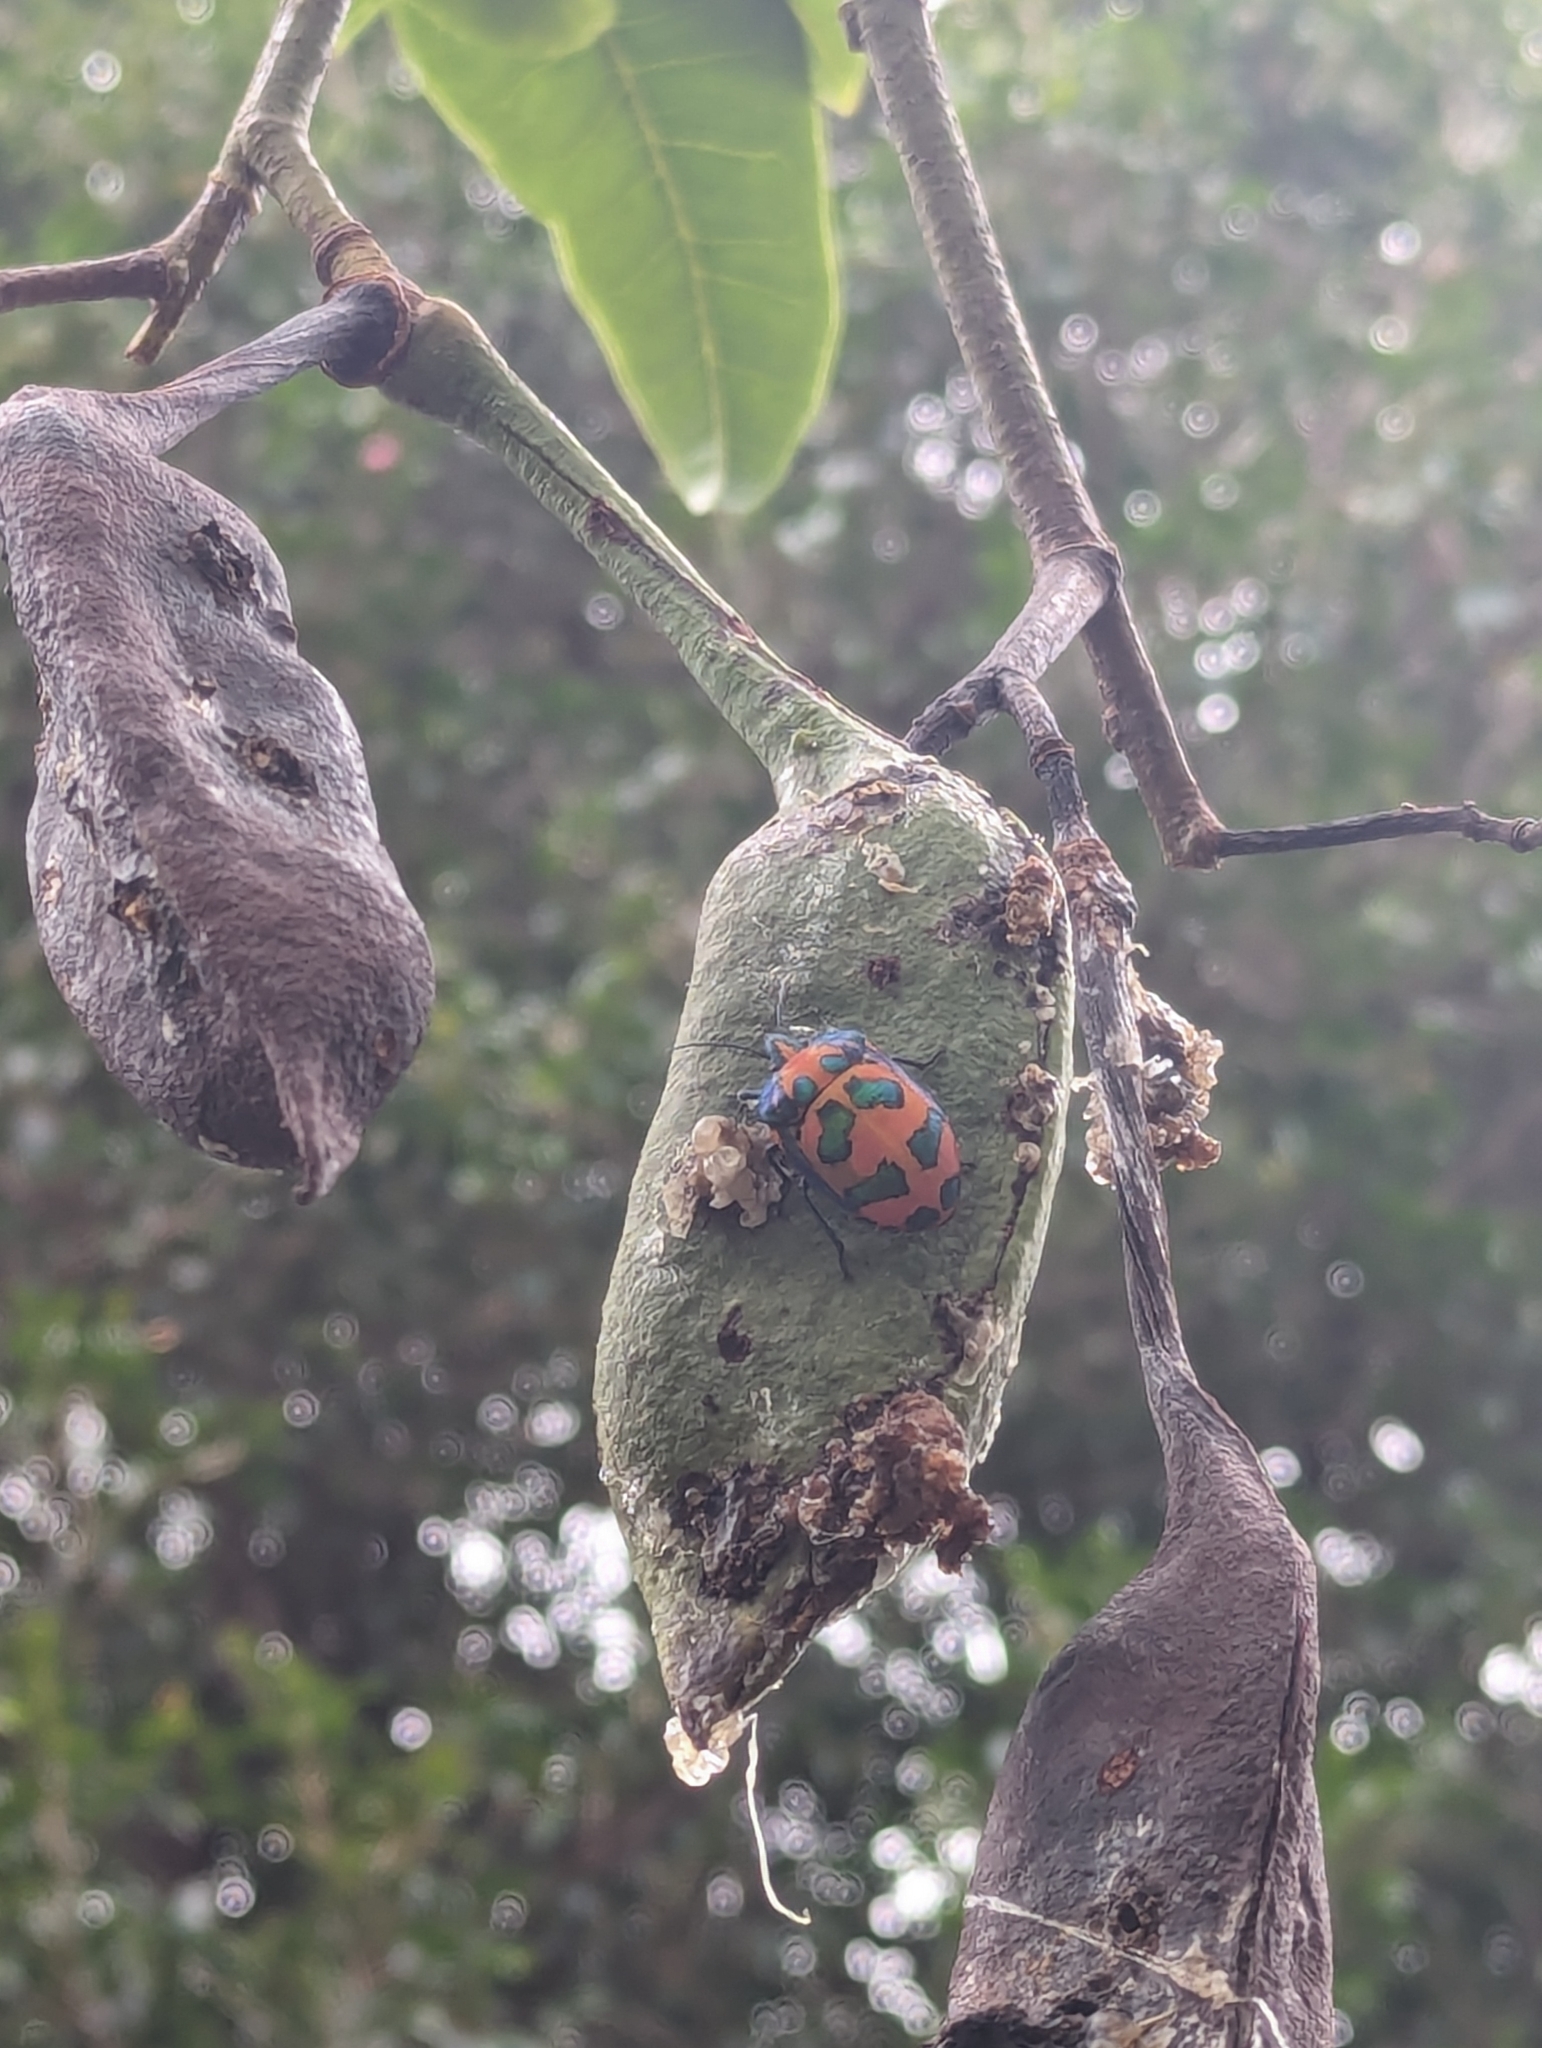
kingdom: Animalia
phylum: Arthropoda
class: Insecta
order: Hemiptera
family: Scutelleridae
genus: Tectocoris
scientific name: Tectocoris diophthalmus
